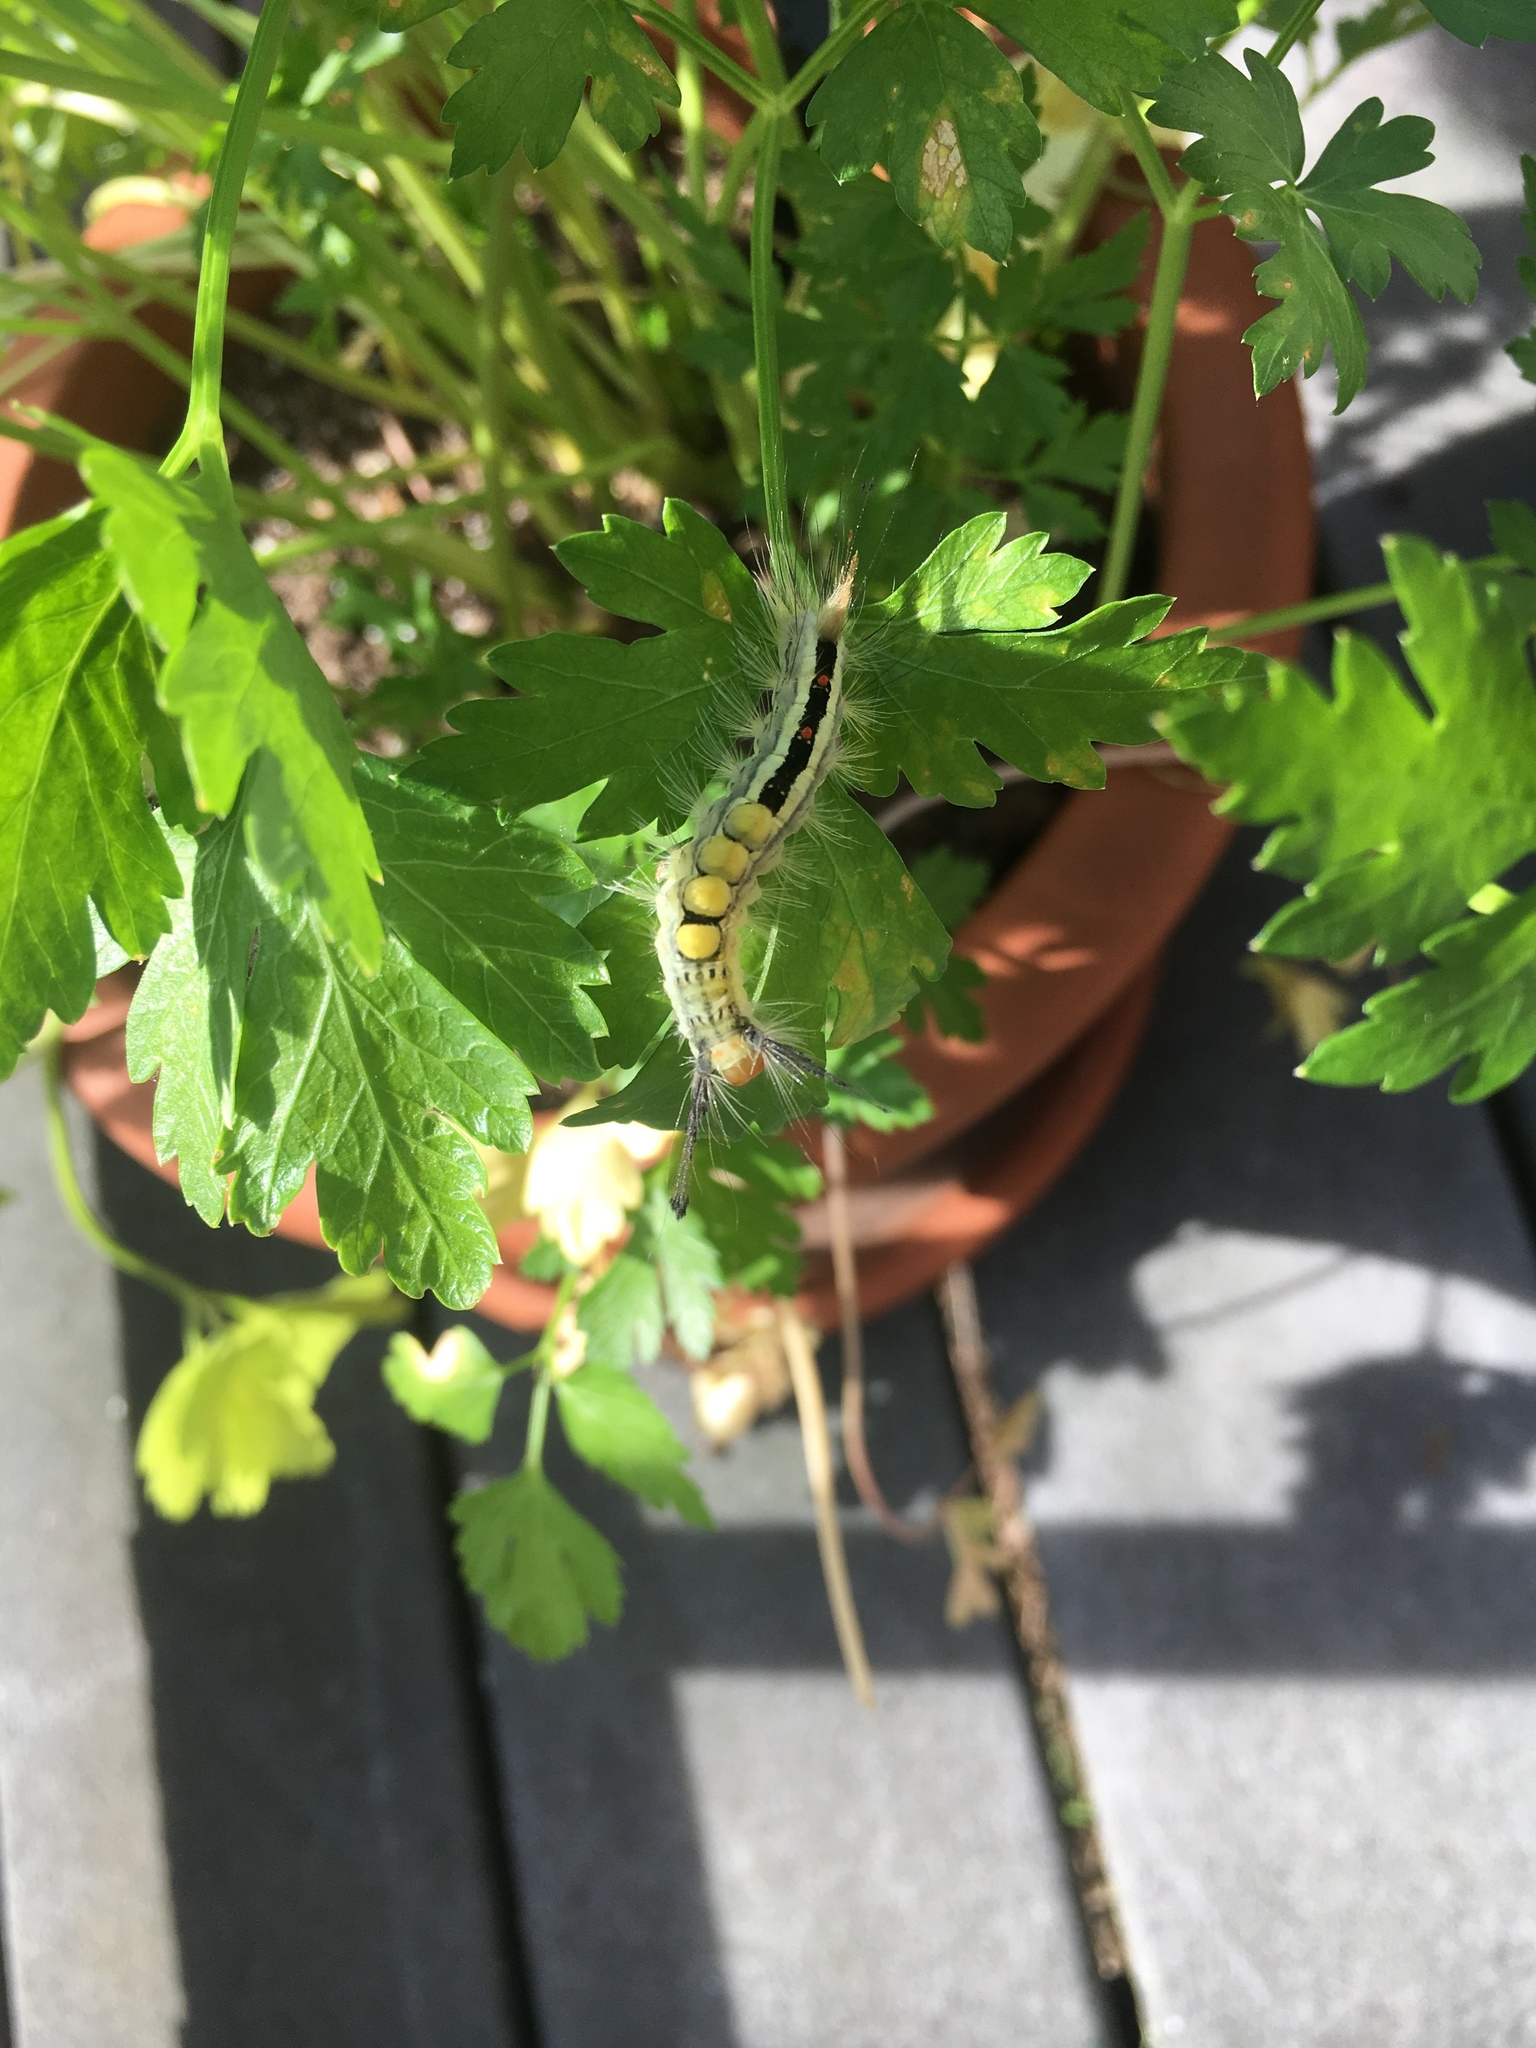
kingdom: Animalia
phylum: Arthropoda
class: Insecta
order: Lepidoptera
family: Erebidae
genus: Orgyia
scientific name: Orgyia leucostigma
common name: White-marked tussock moth
